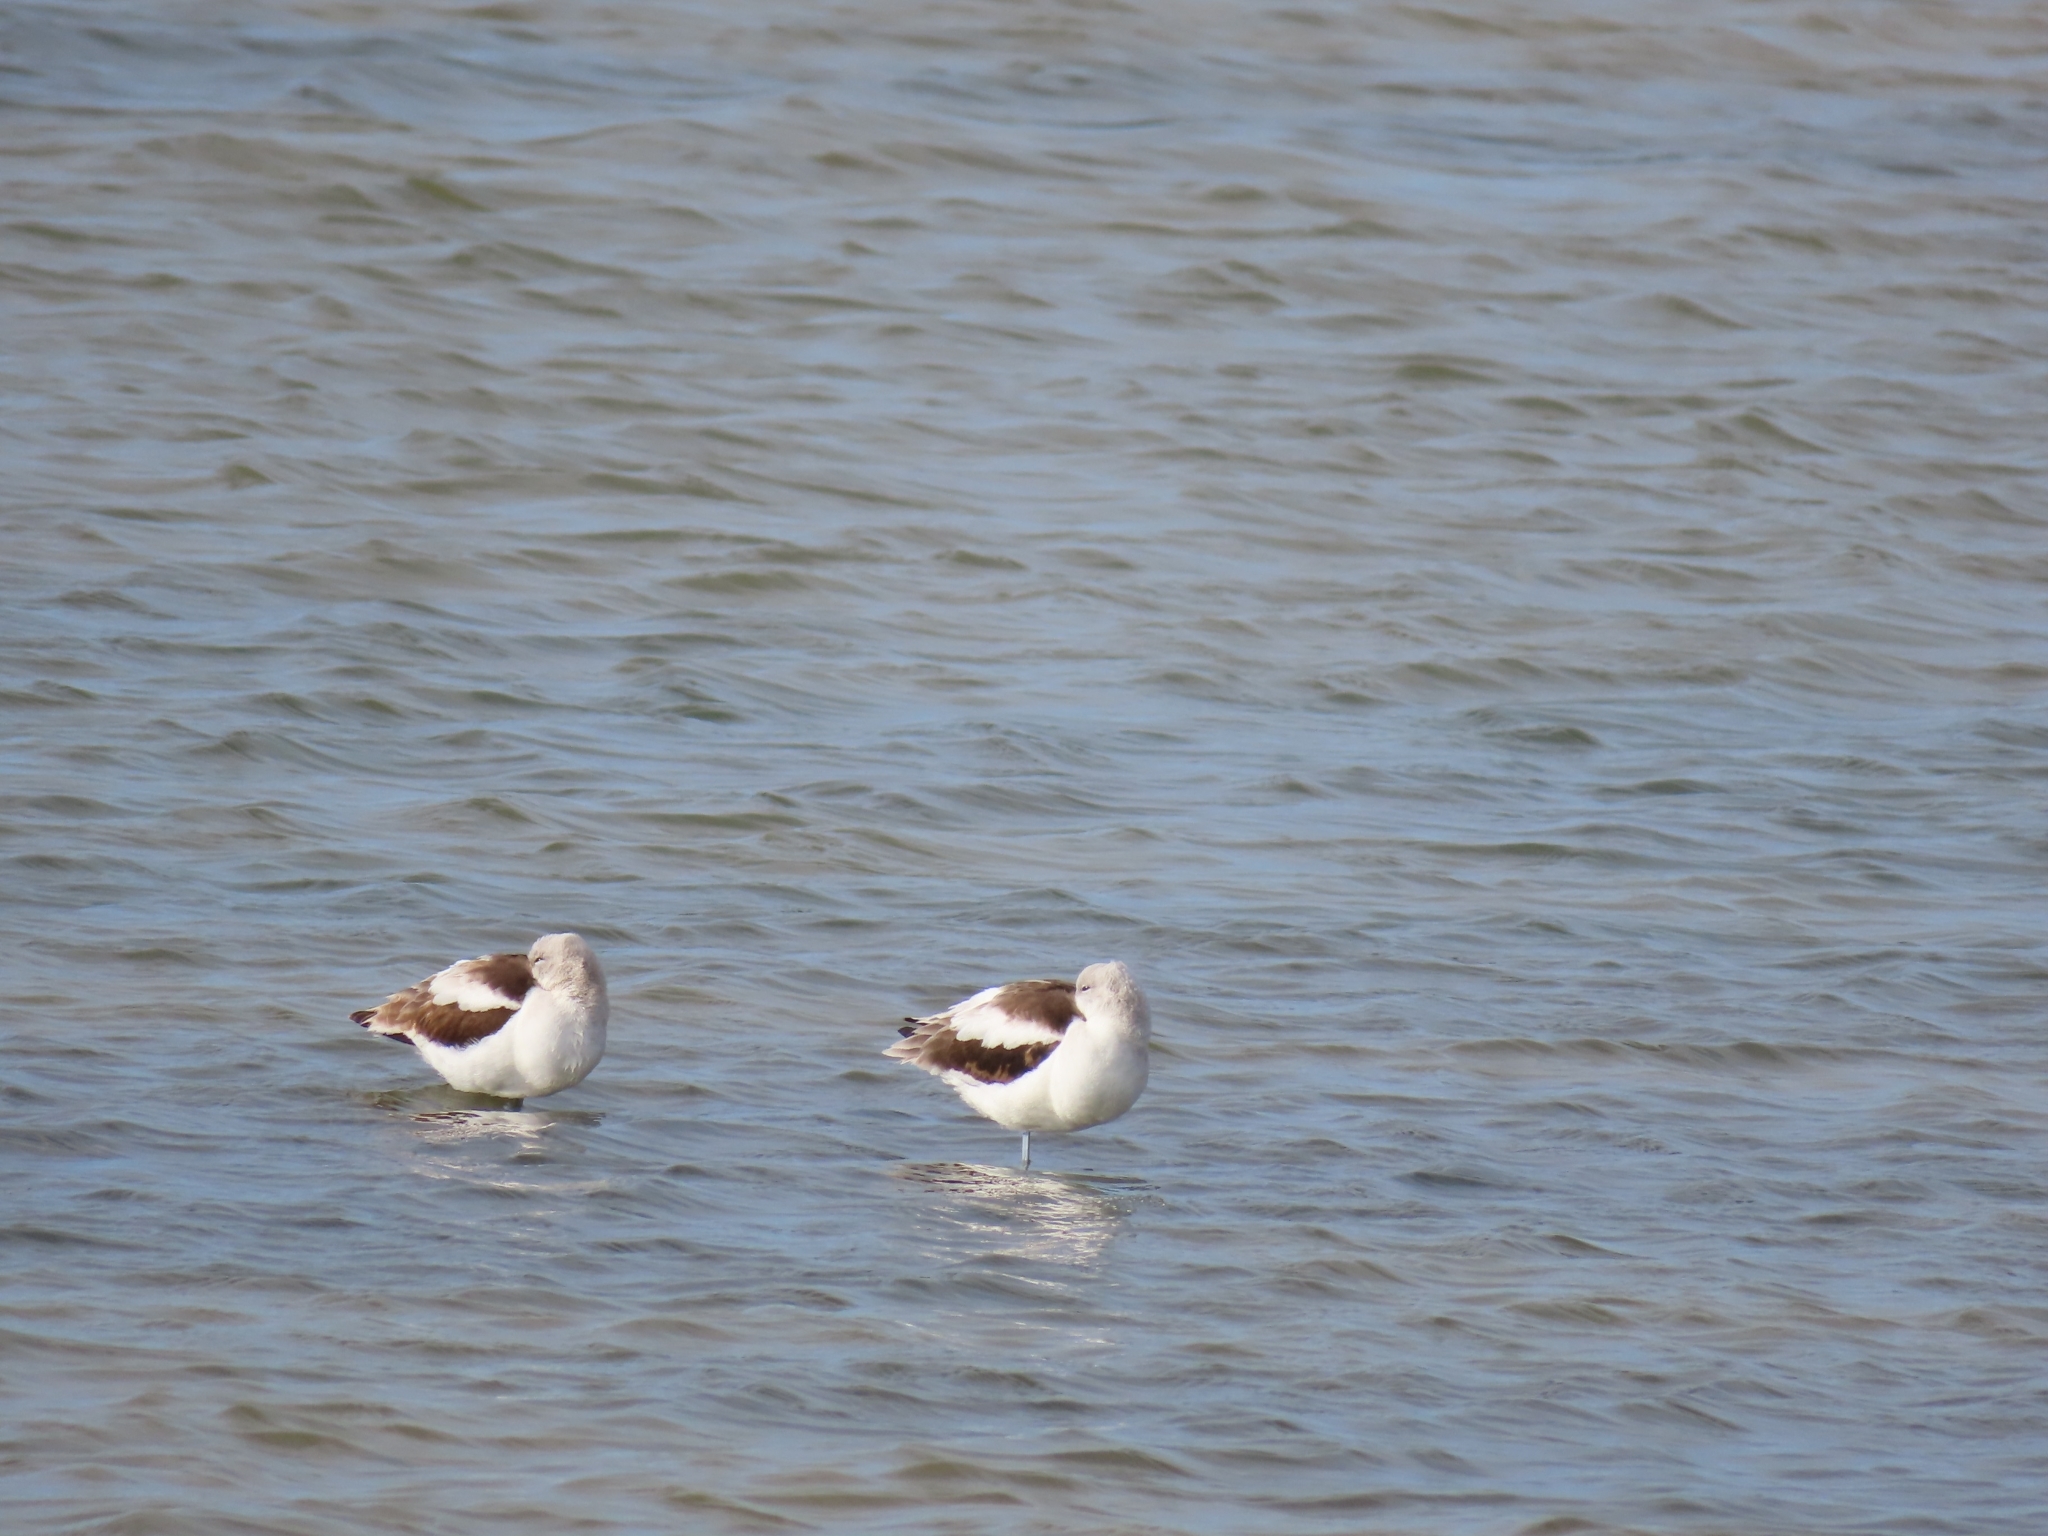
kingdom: Animalia
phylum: Chordata
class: Aves
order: Charadriiformes
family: Recurvirostridae
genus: Recurvirostra
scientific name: Recurvirostra americana
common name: American avocet
